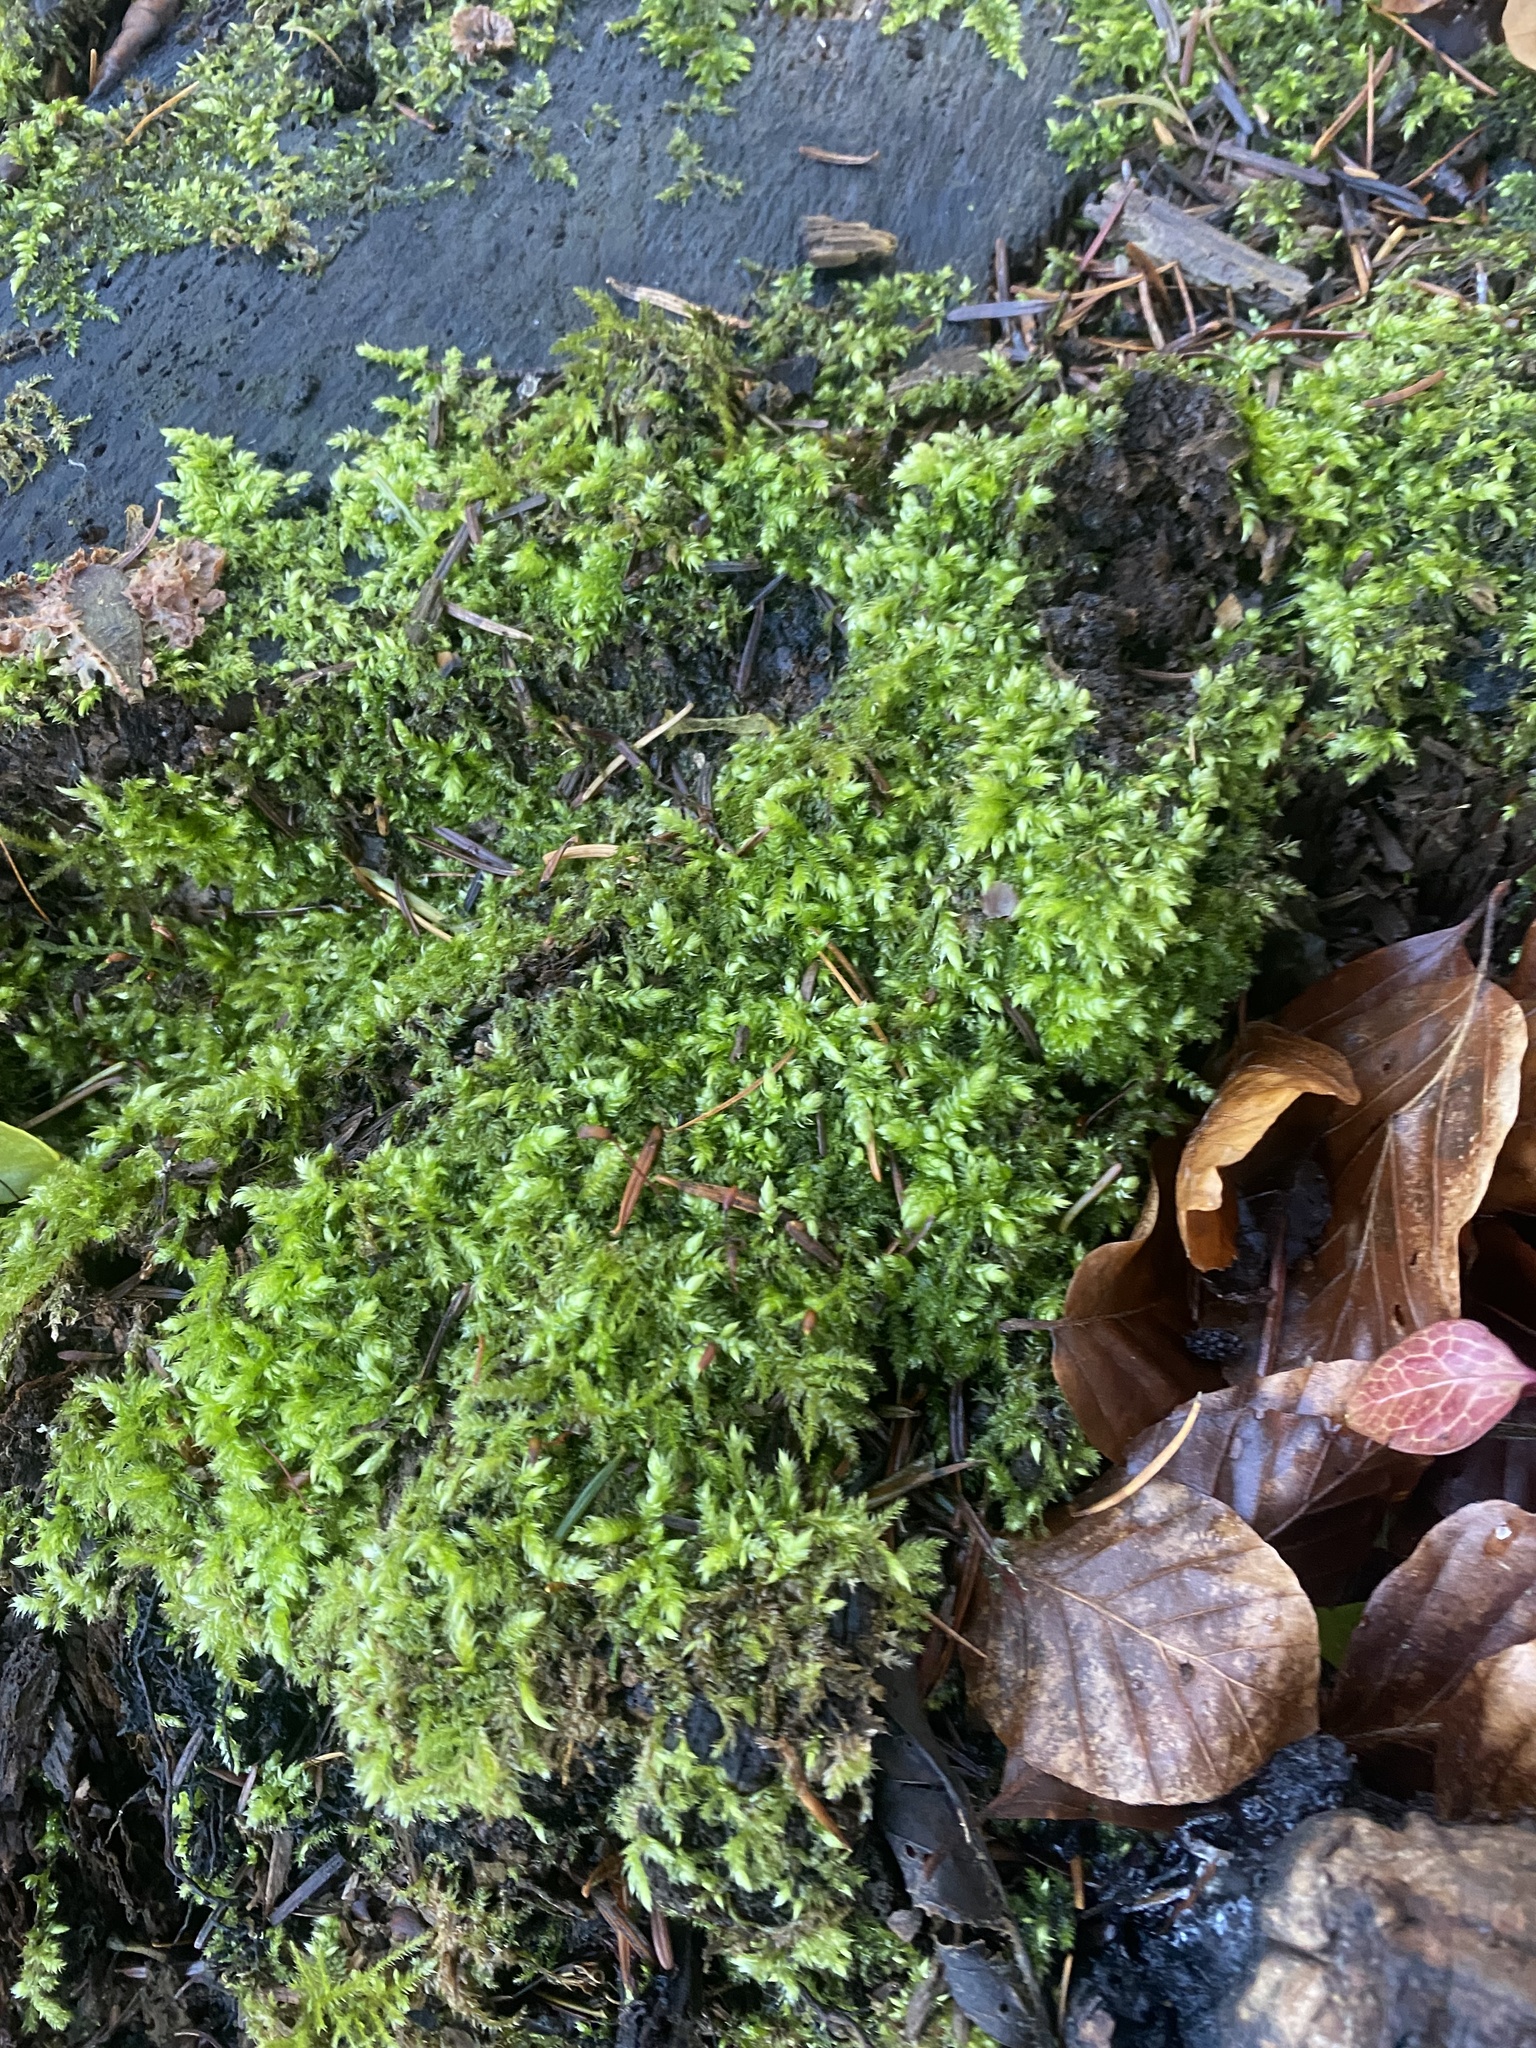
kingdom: Plantae
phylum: Bryophyta
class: Bryopsida
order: Hypnales
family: Brachytheciaceae
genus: Brachythecium
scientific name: Brachythecium rutabulum
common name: Rough-stalked feather-moss
